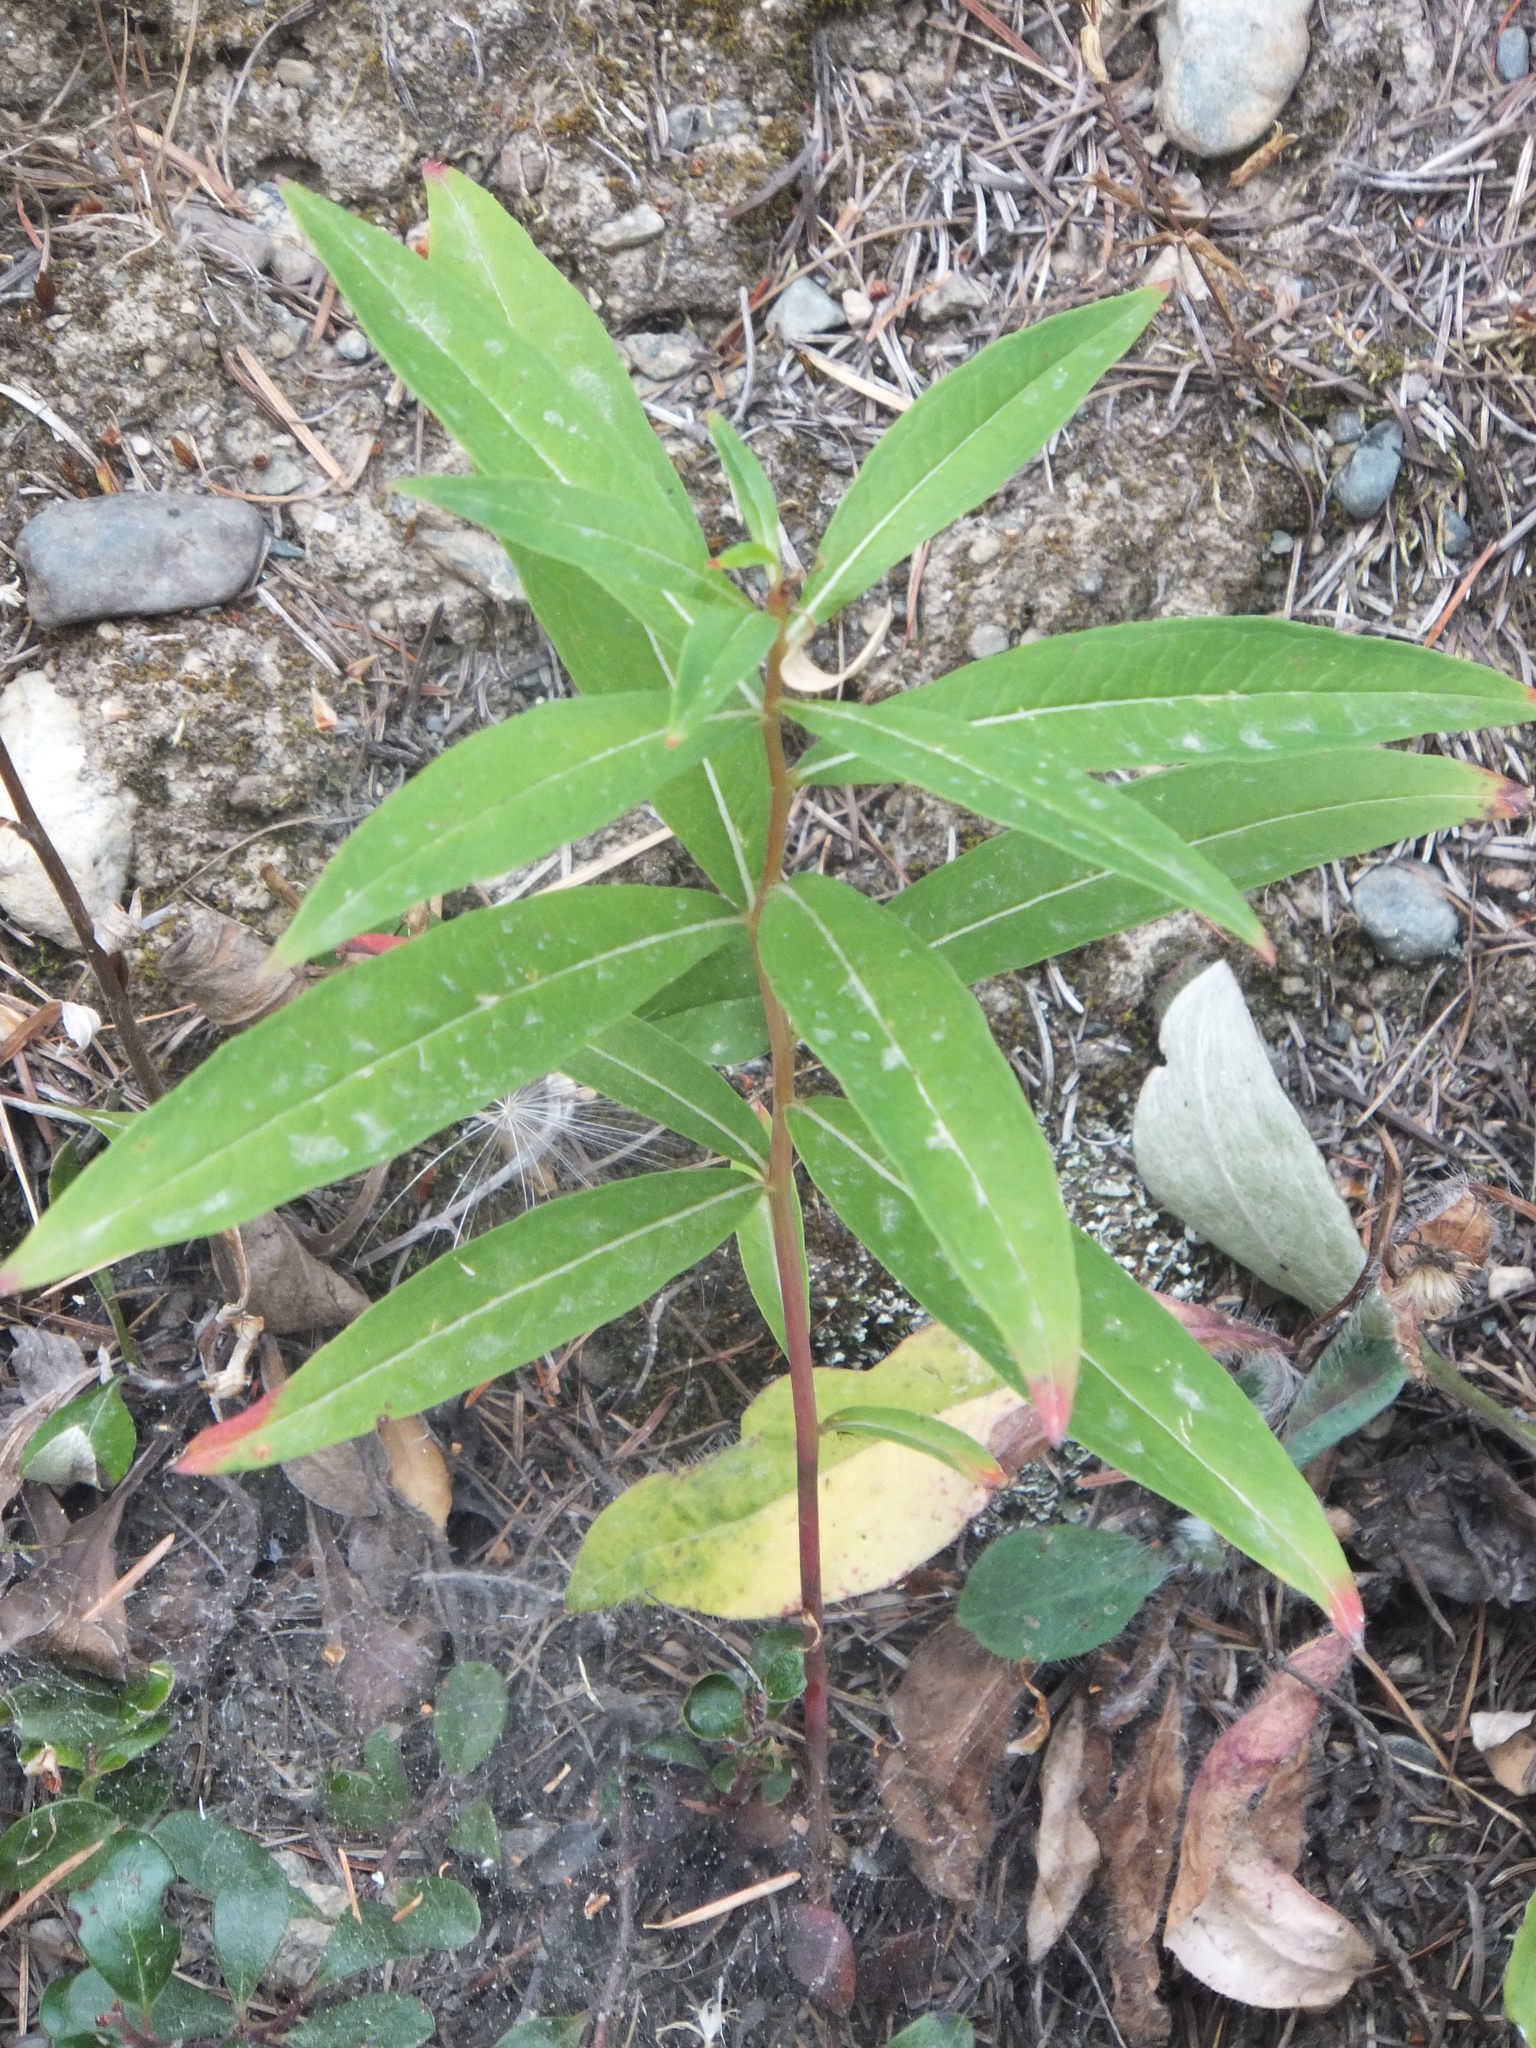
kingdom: Plantae
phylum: Tracheophyta
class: Magnoliopsida
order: Myrtales
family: Onagraceae
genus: Chamaenerion
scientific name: Chamaenerion angustifolium
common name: Fireweed
